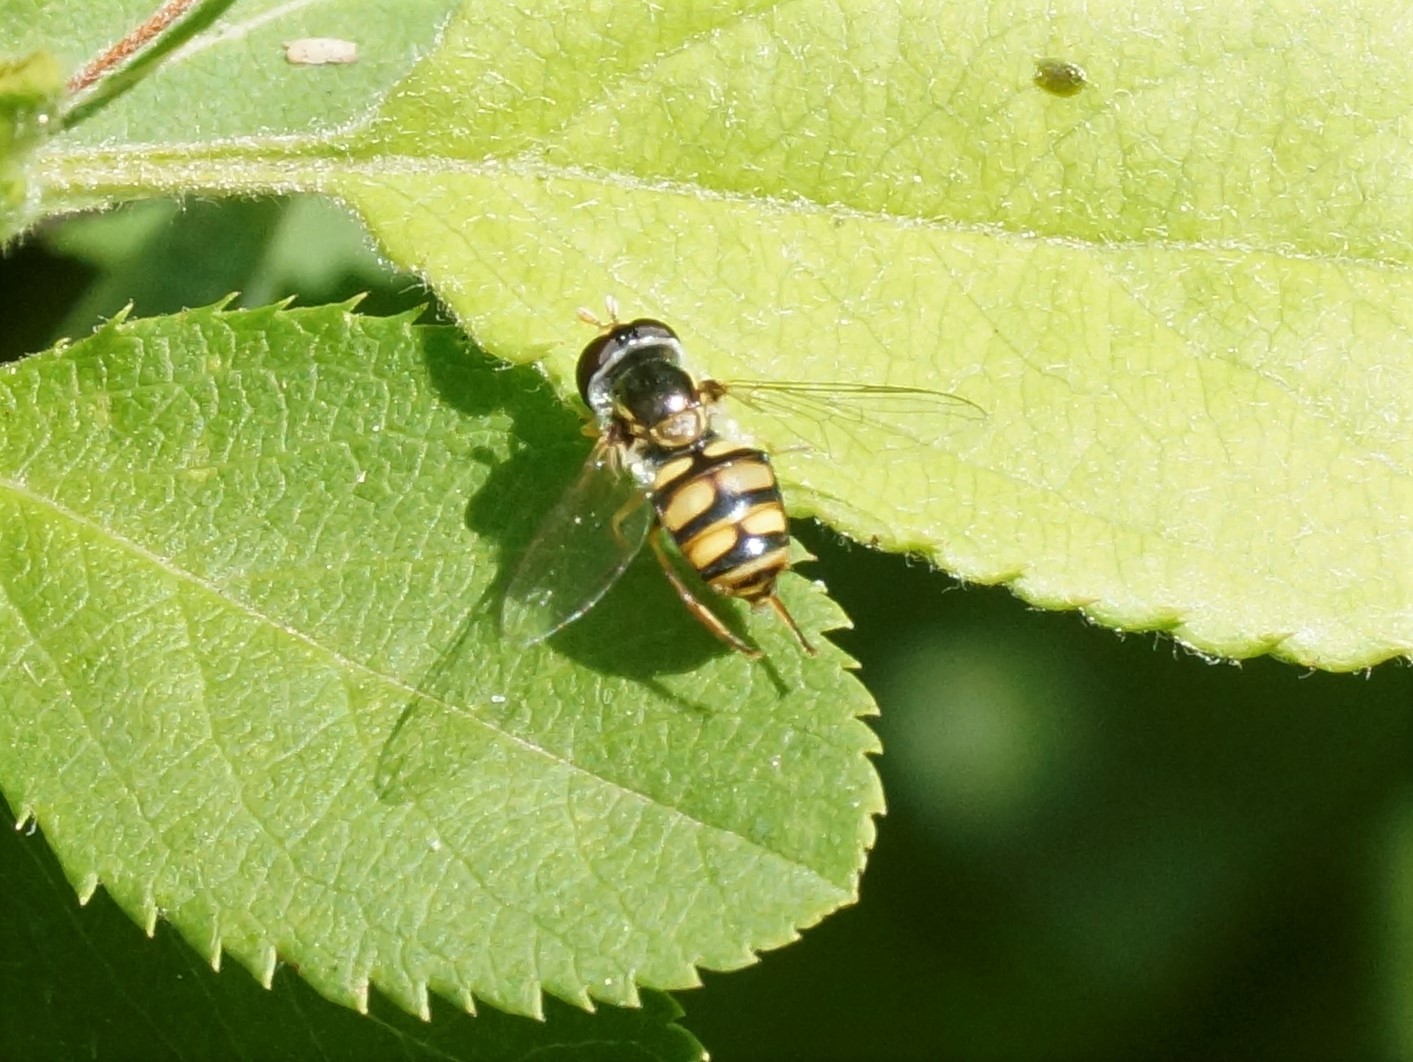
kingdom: Animalia
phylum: Arthropoda
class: Insecta
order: Diptera
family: Syrphidae
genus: Simosyrphus
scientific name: Simosyrphus grandicornis
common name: Hoverfly
